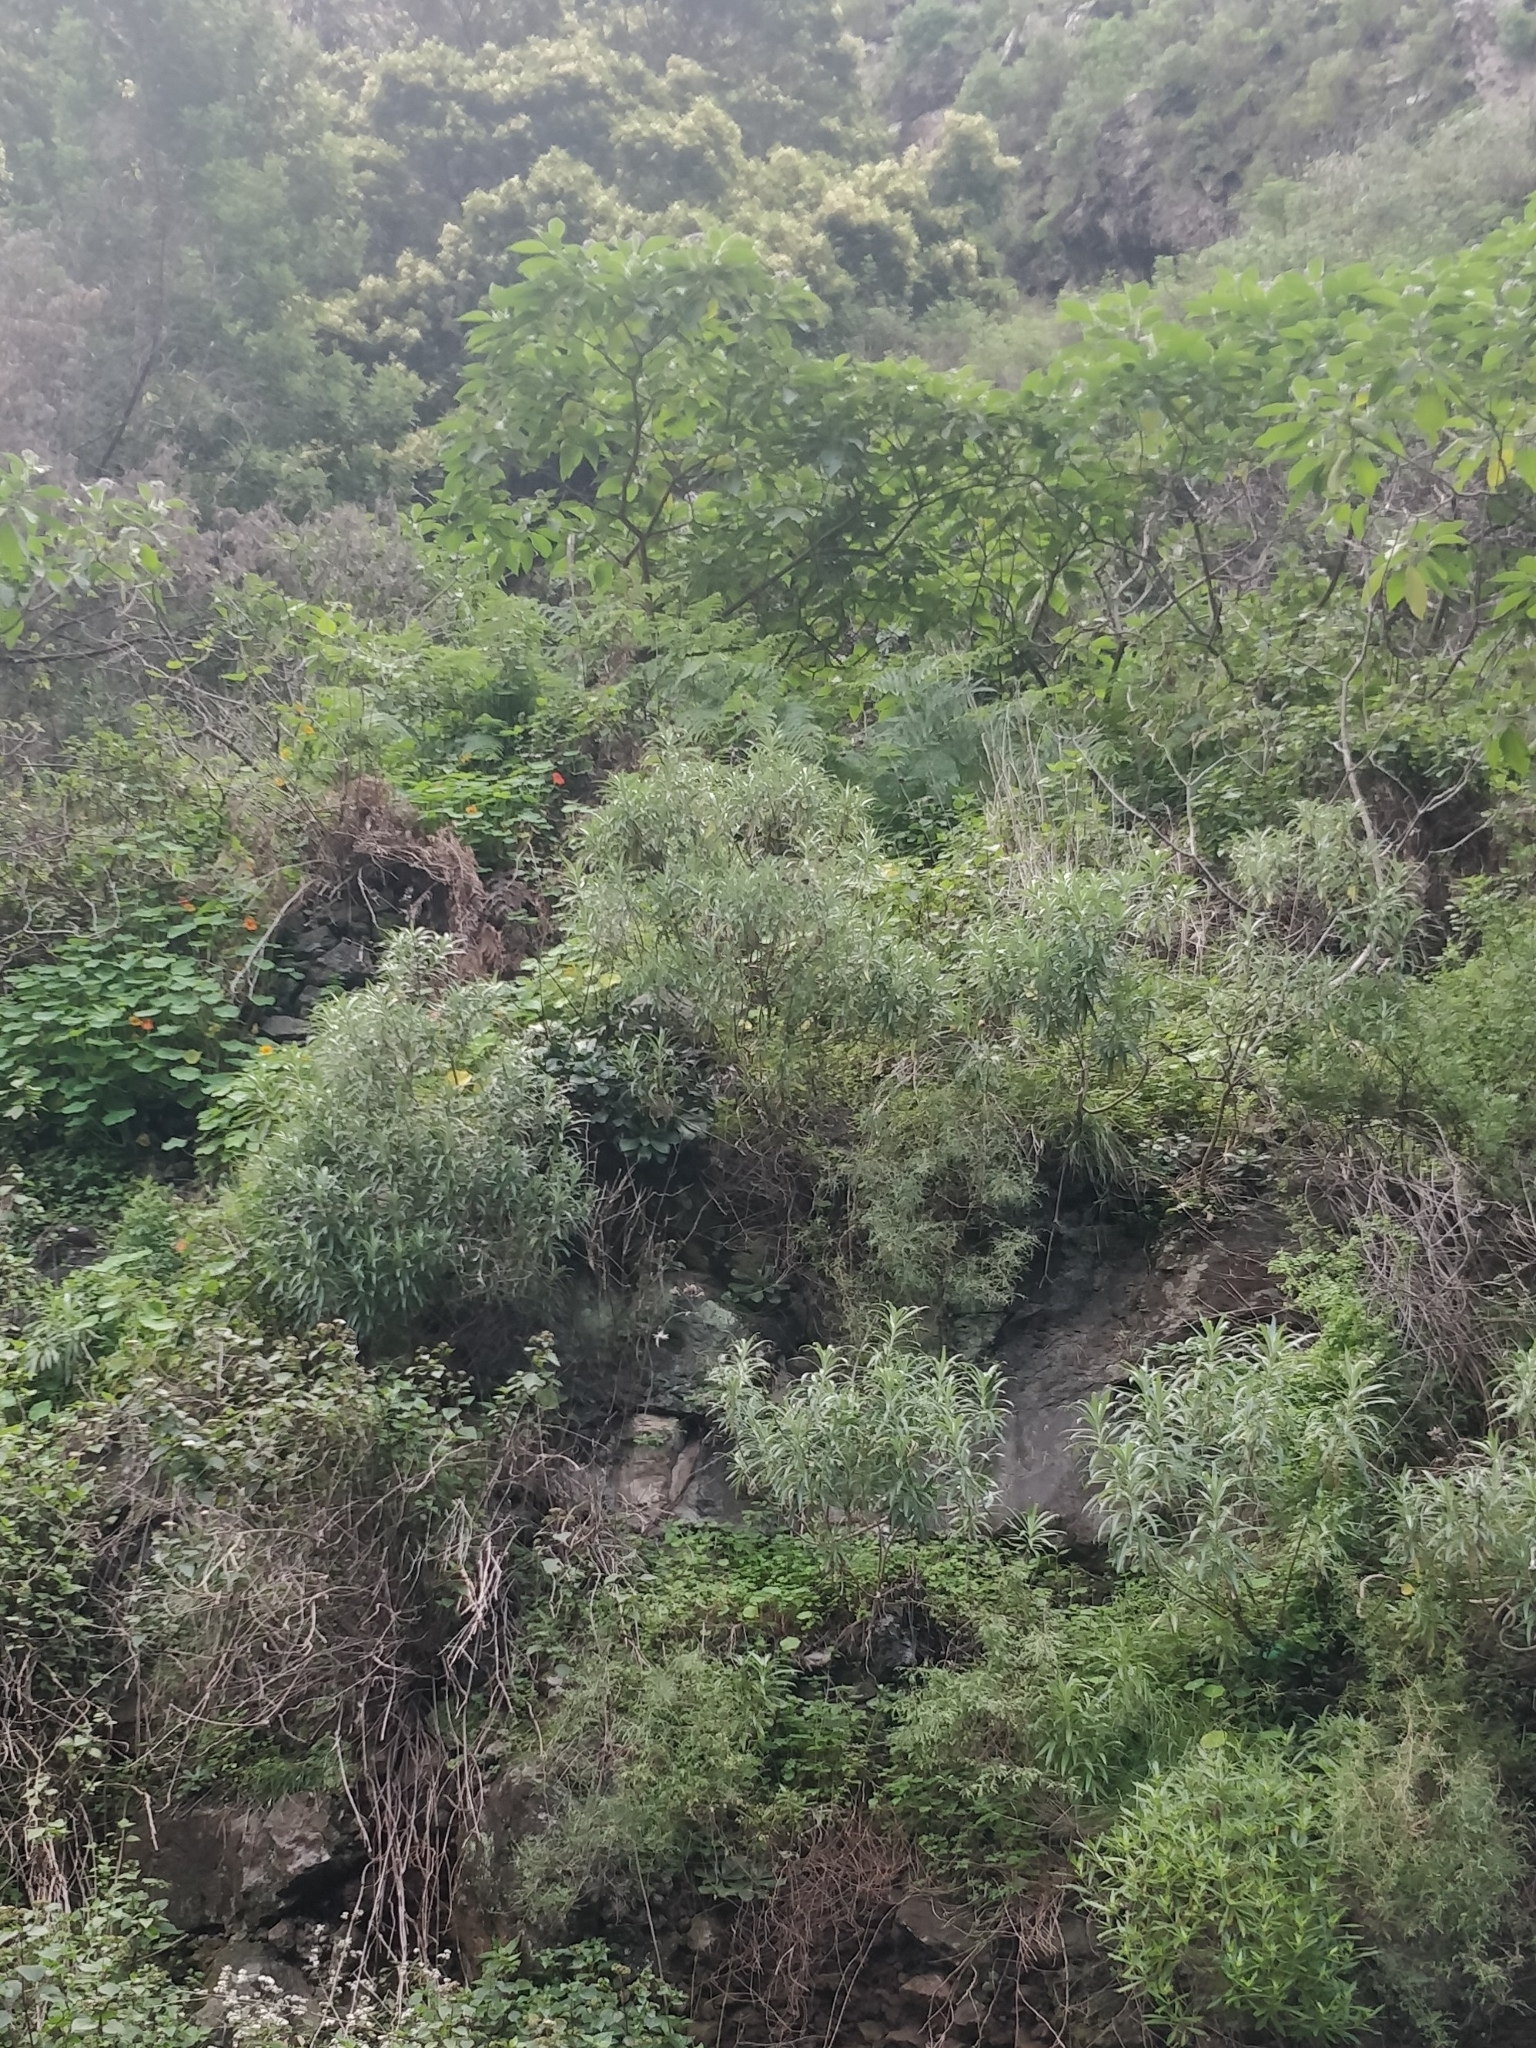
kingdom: Plantae
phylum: Tracheophyta
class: Magnoliopsida
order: Asterales
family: Asteraceae
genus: Carlina
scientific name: Carlina salicifolia
